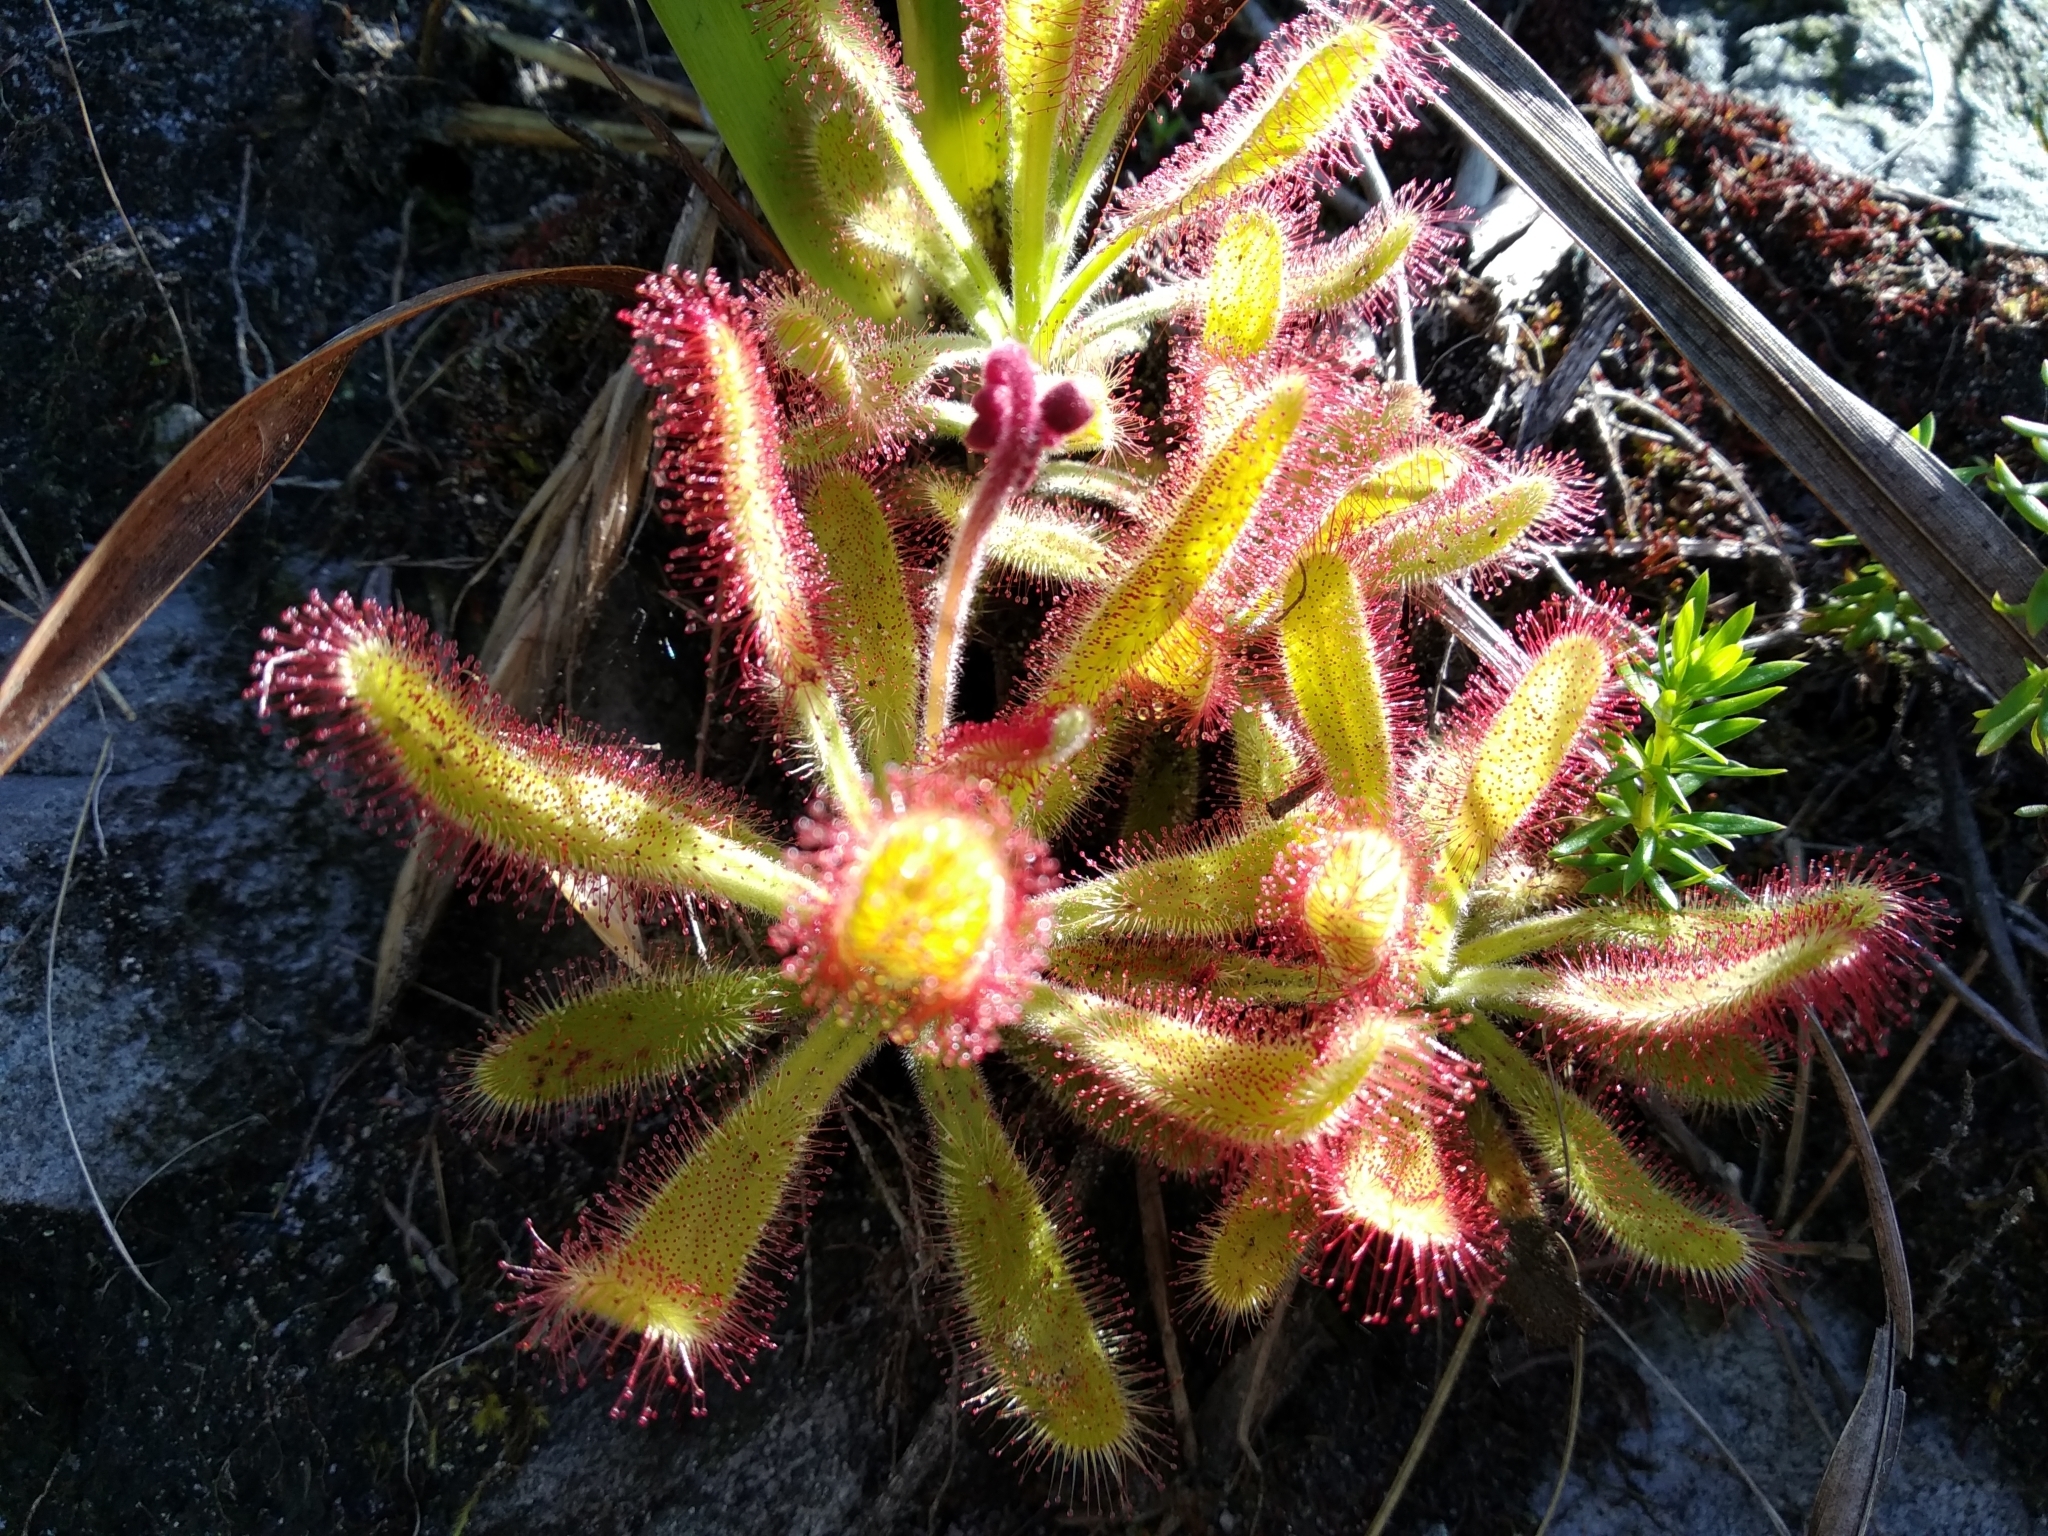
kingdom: Plantae
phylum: Tracheophyta
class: Magnoliopsida
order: Caryophyllales
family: Droseraceae
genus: Drosera
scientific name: Drosera hilaris
